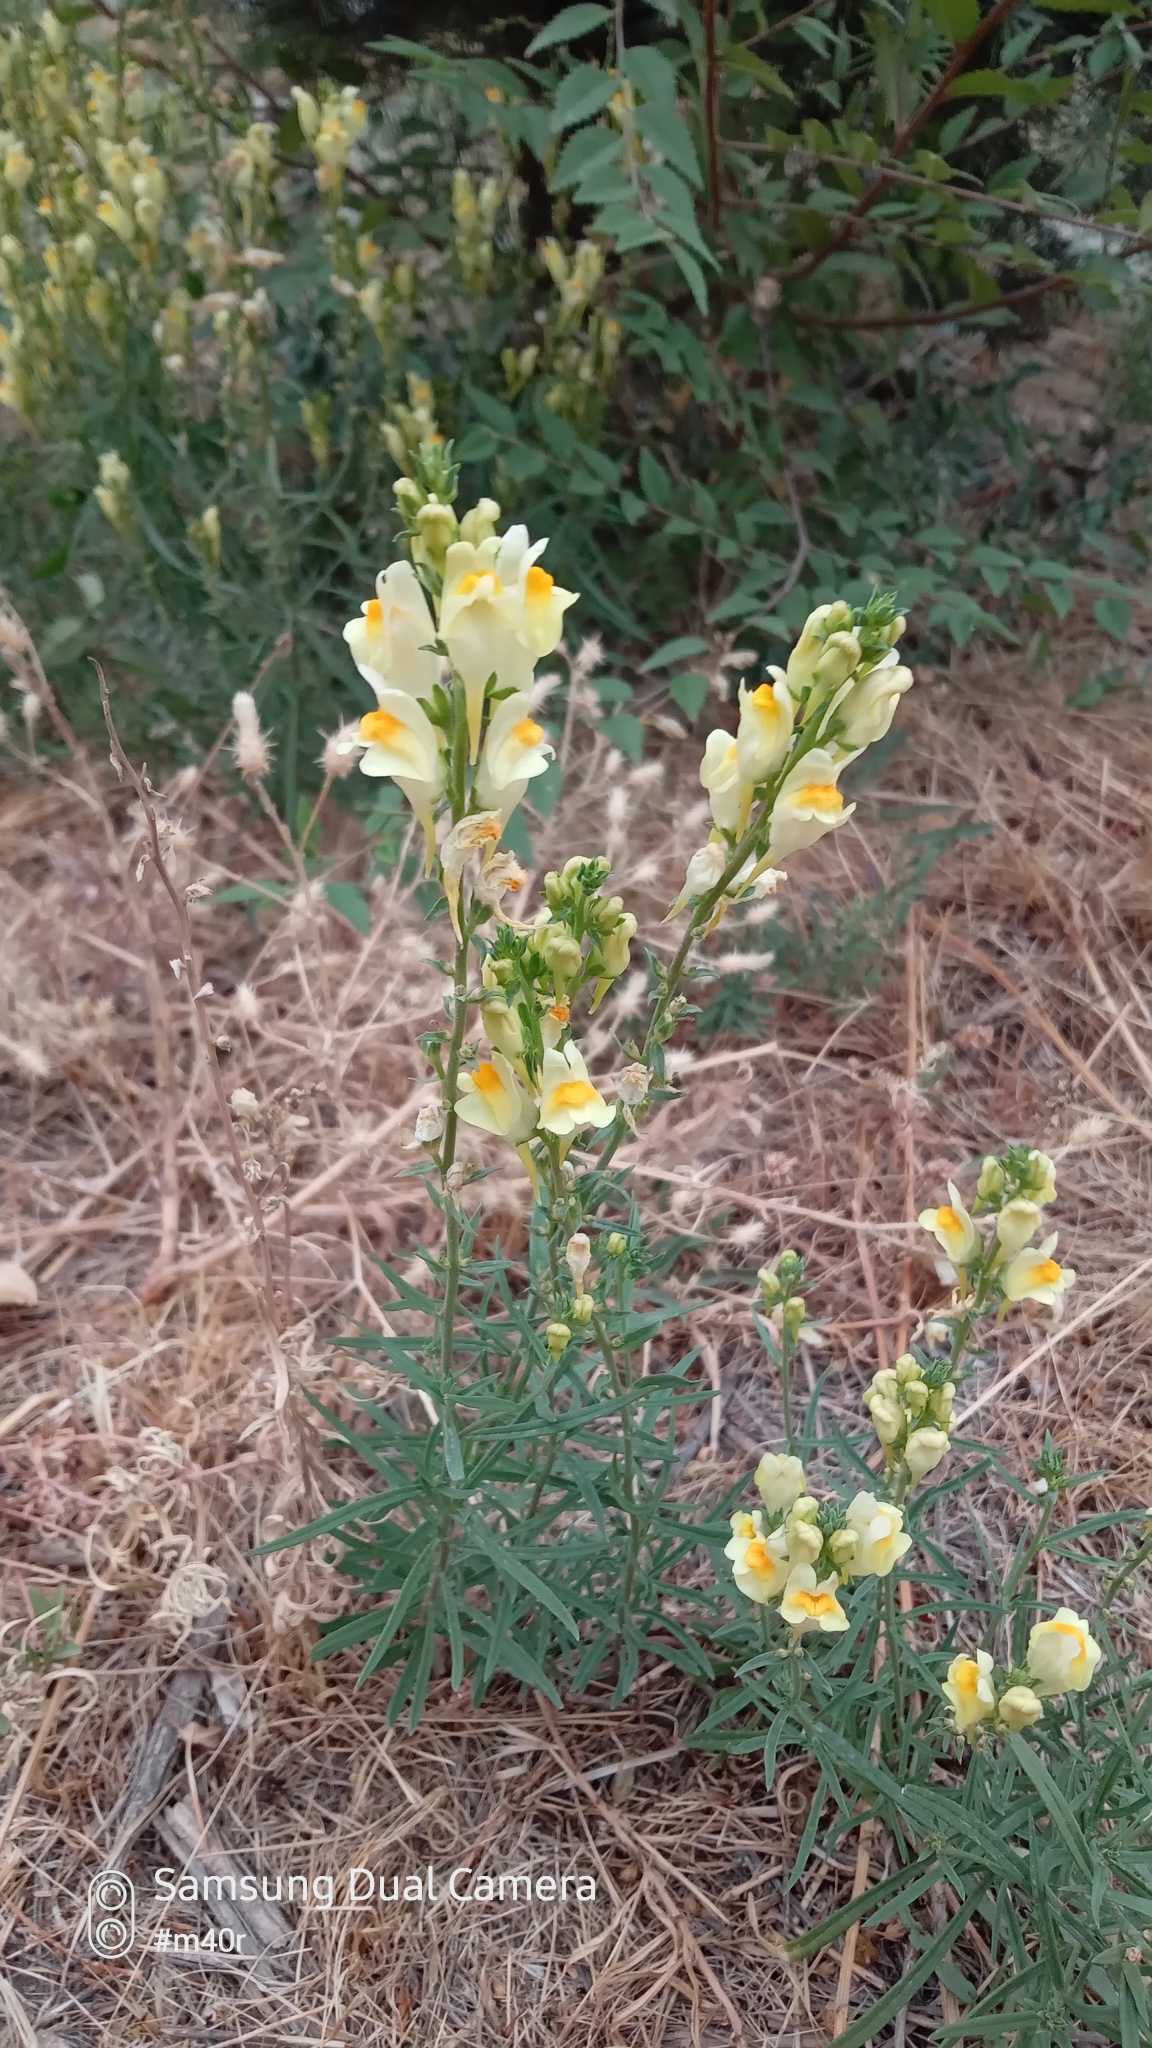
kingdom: Plantae
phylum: Tracheophyta
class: Magnoliopsida
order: Lamiales
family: Plantaginaceae
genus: Linaria
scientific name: Linaria vulgaris
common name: Butter and eggs
